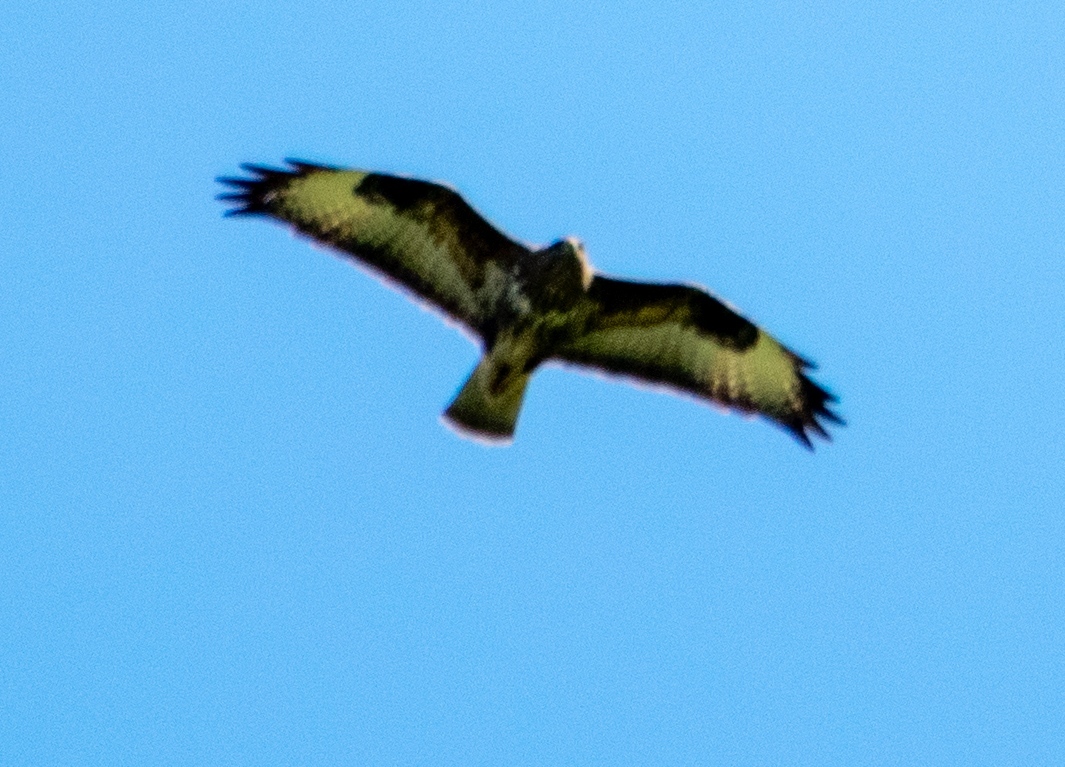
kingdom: Animalia
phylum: Chordata
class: Aves
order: Accipitriformes
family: Accipitridae
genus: Buteo
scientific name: Buteo buteo
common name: Common buzzard
